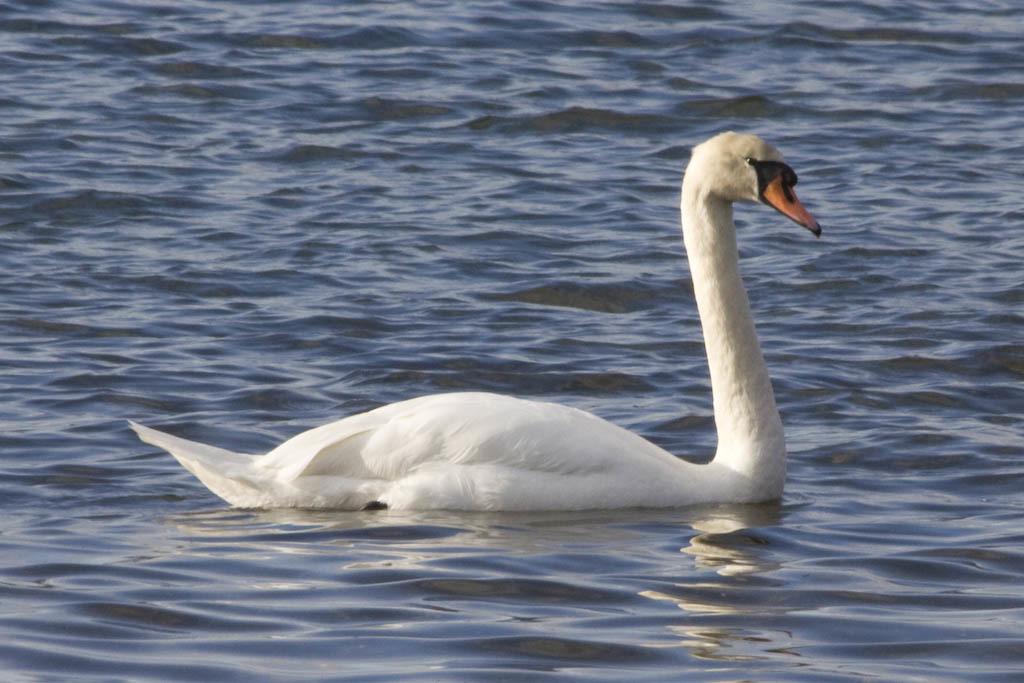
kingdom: Animalia
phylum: Chordata
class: Aves
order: Anseriformes
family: Anatidae
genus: Cygnus
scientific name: Cygnus olor
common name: Mute swan
